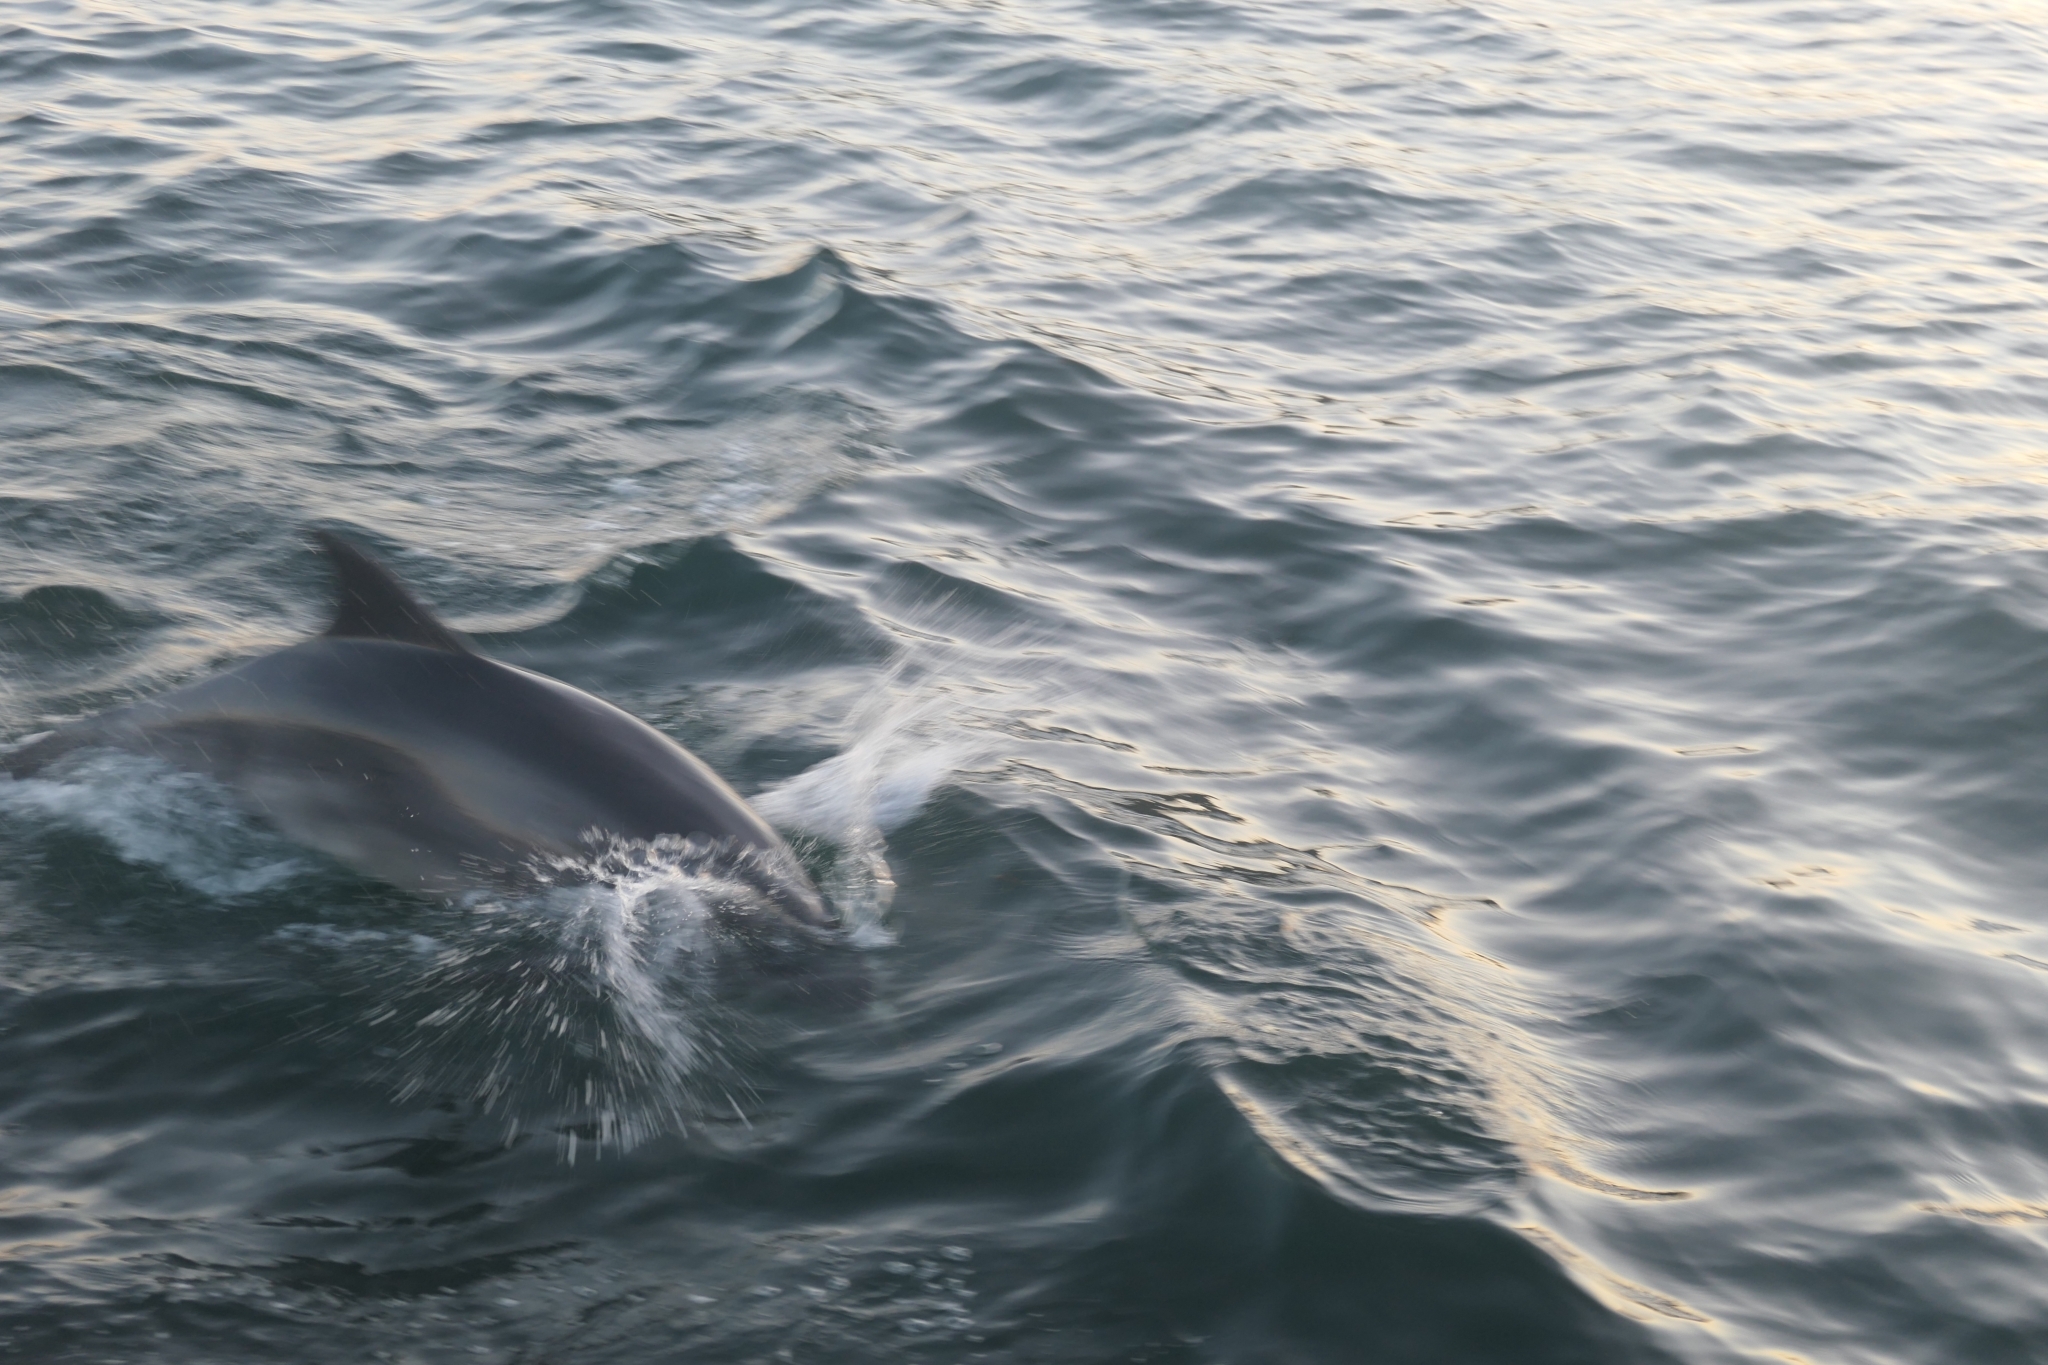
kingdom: Animalia
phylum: Chordata
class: Mammalia
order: Cetacea
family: Delphinidae
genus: Tursiops
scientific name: Tursiops truncatus
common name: Bottlenose dolphin
